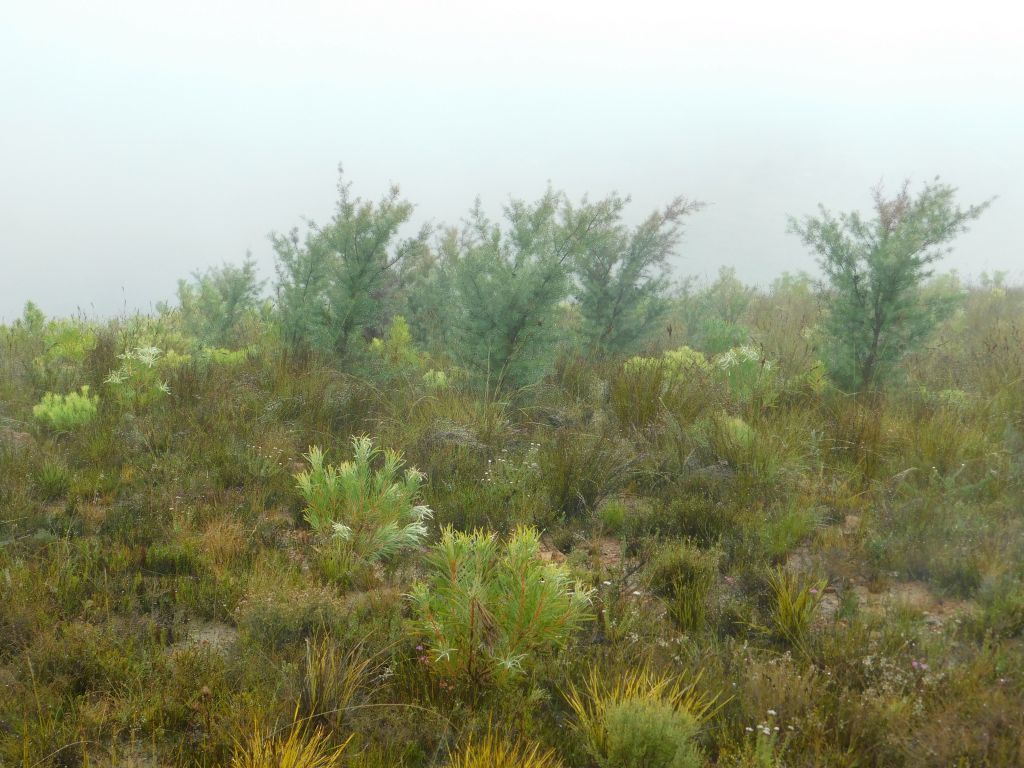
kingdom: Plantae
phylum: Tracheophyta
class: Magnoliopsida
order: Proteales
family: Proteaceae
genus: Hakea
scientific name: Hakea sericea
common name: Needle bush
